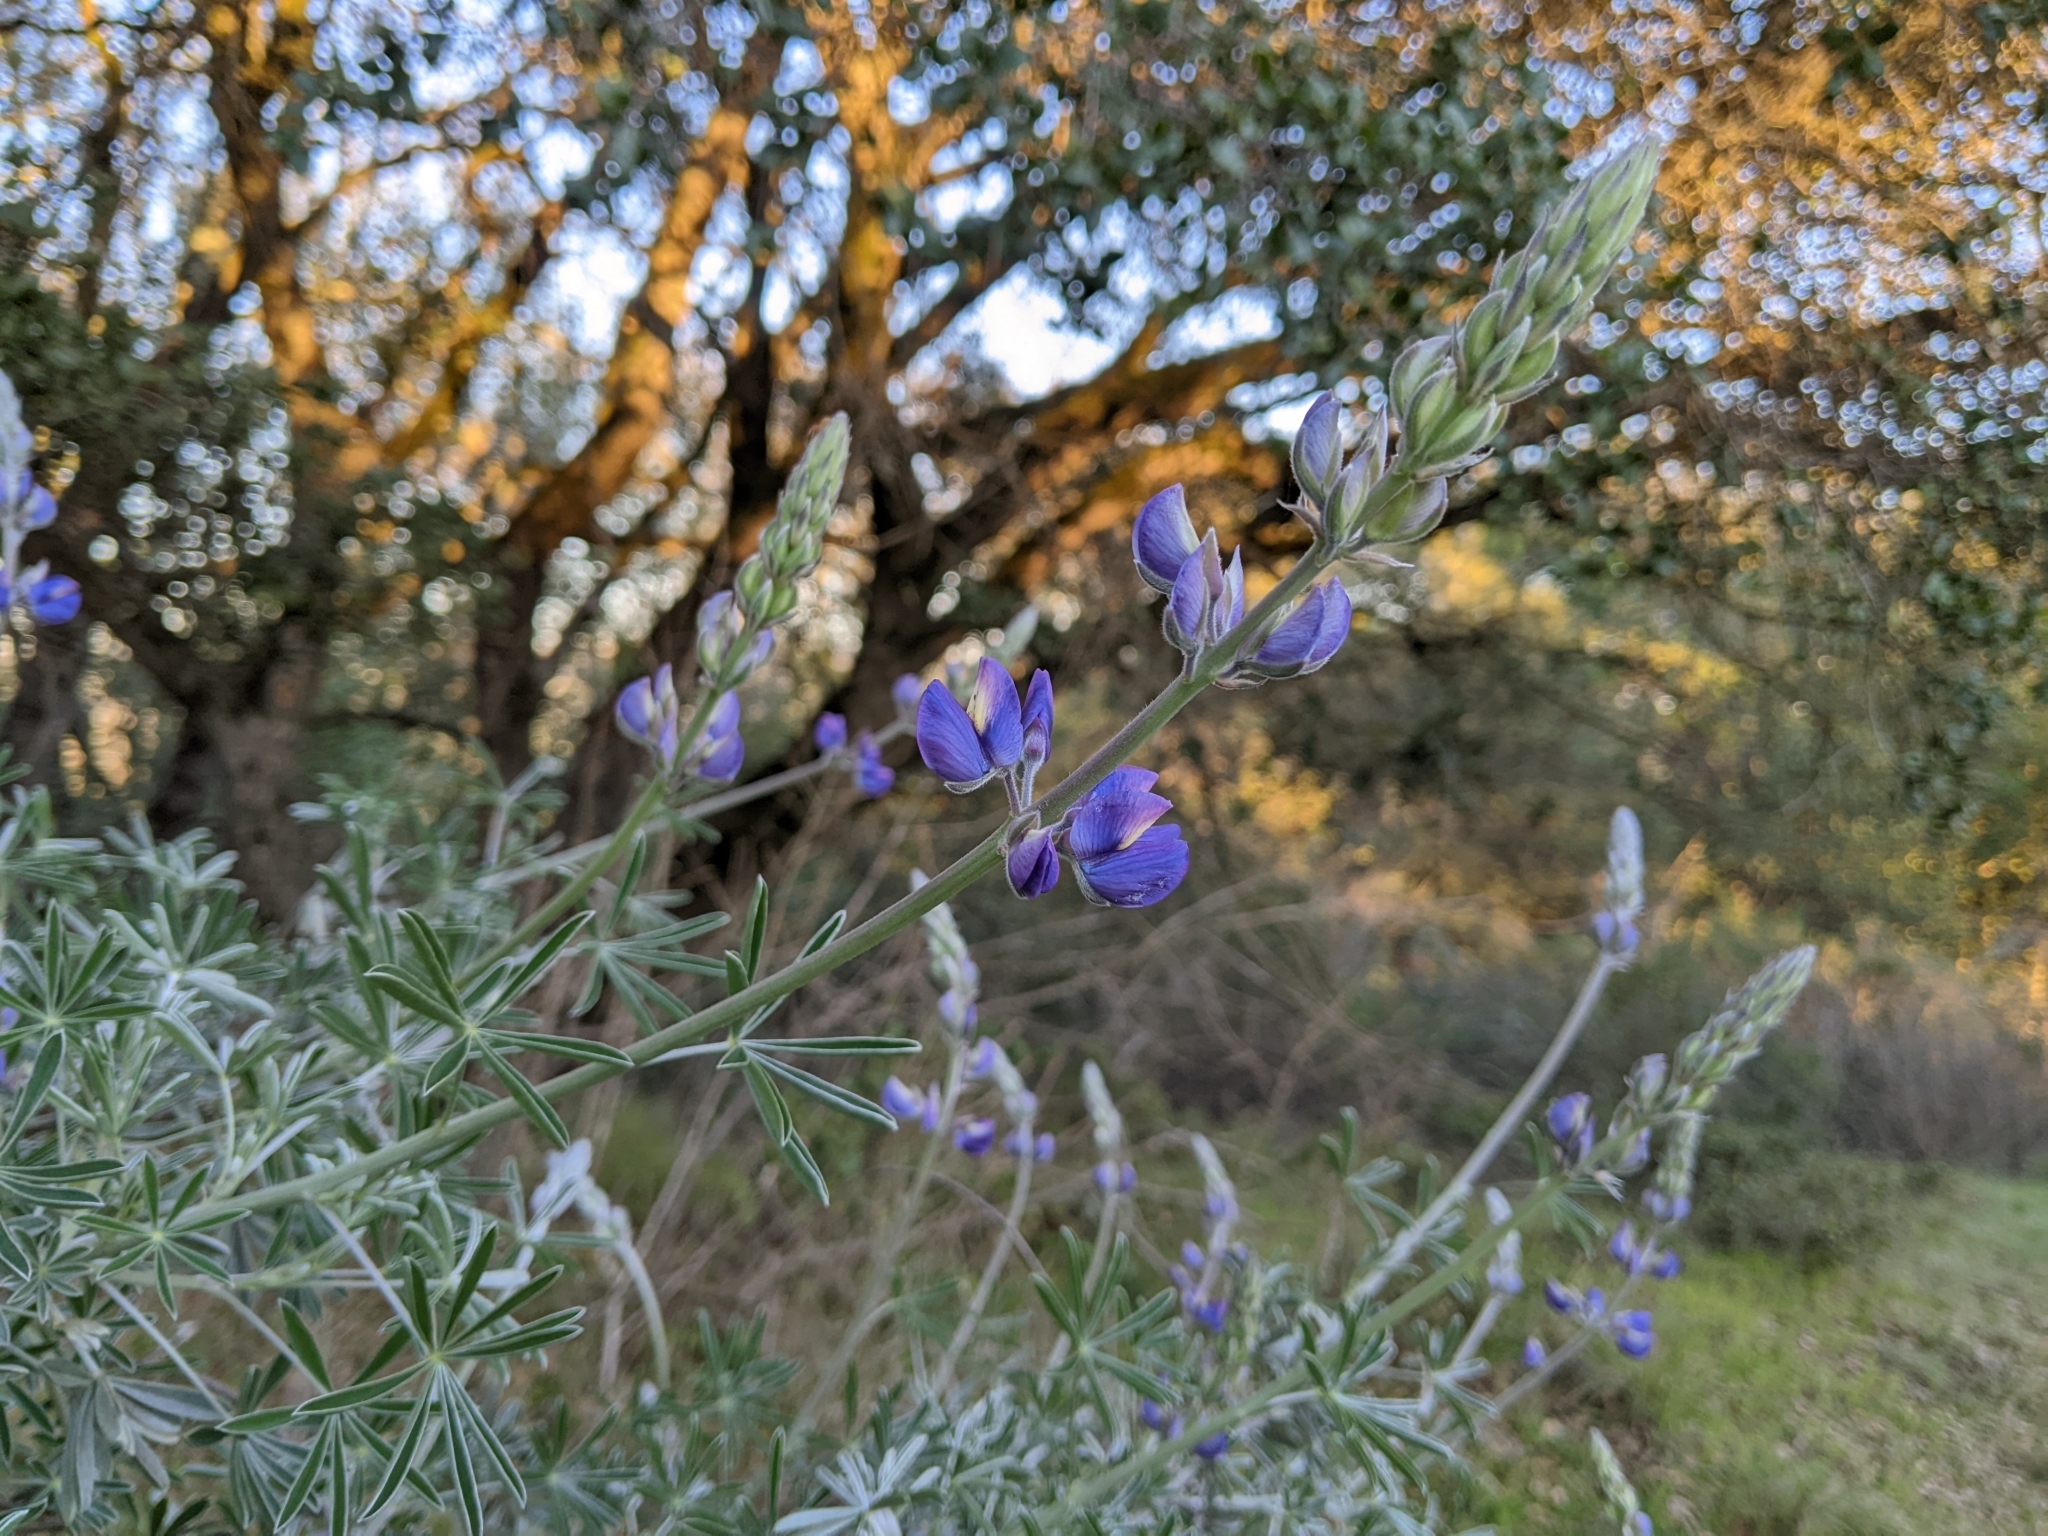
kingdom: Plantae
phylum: Tracheophyta
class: Magnoliopsida
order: Fabales
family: Fabaceae
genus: Lupinus
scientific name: Lupinus albifrons
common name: Foothill lupine
